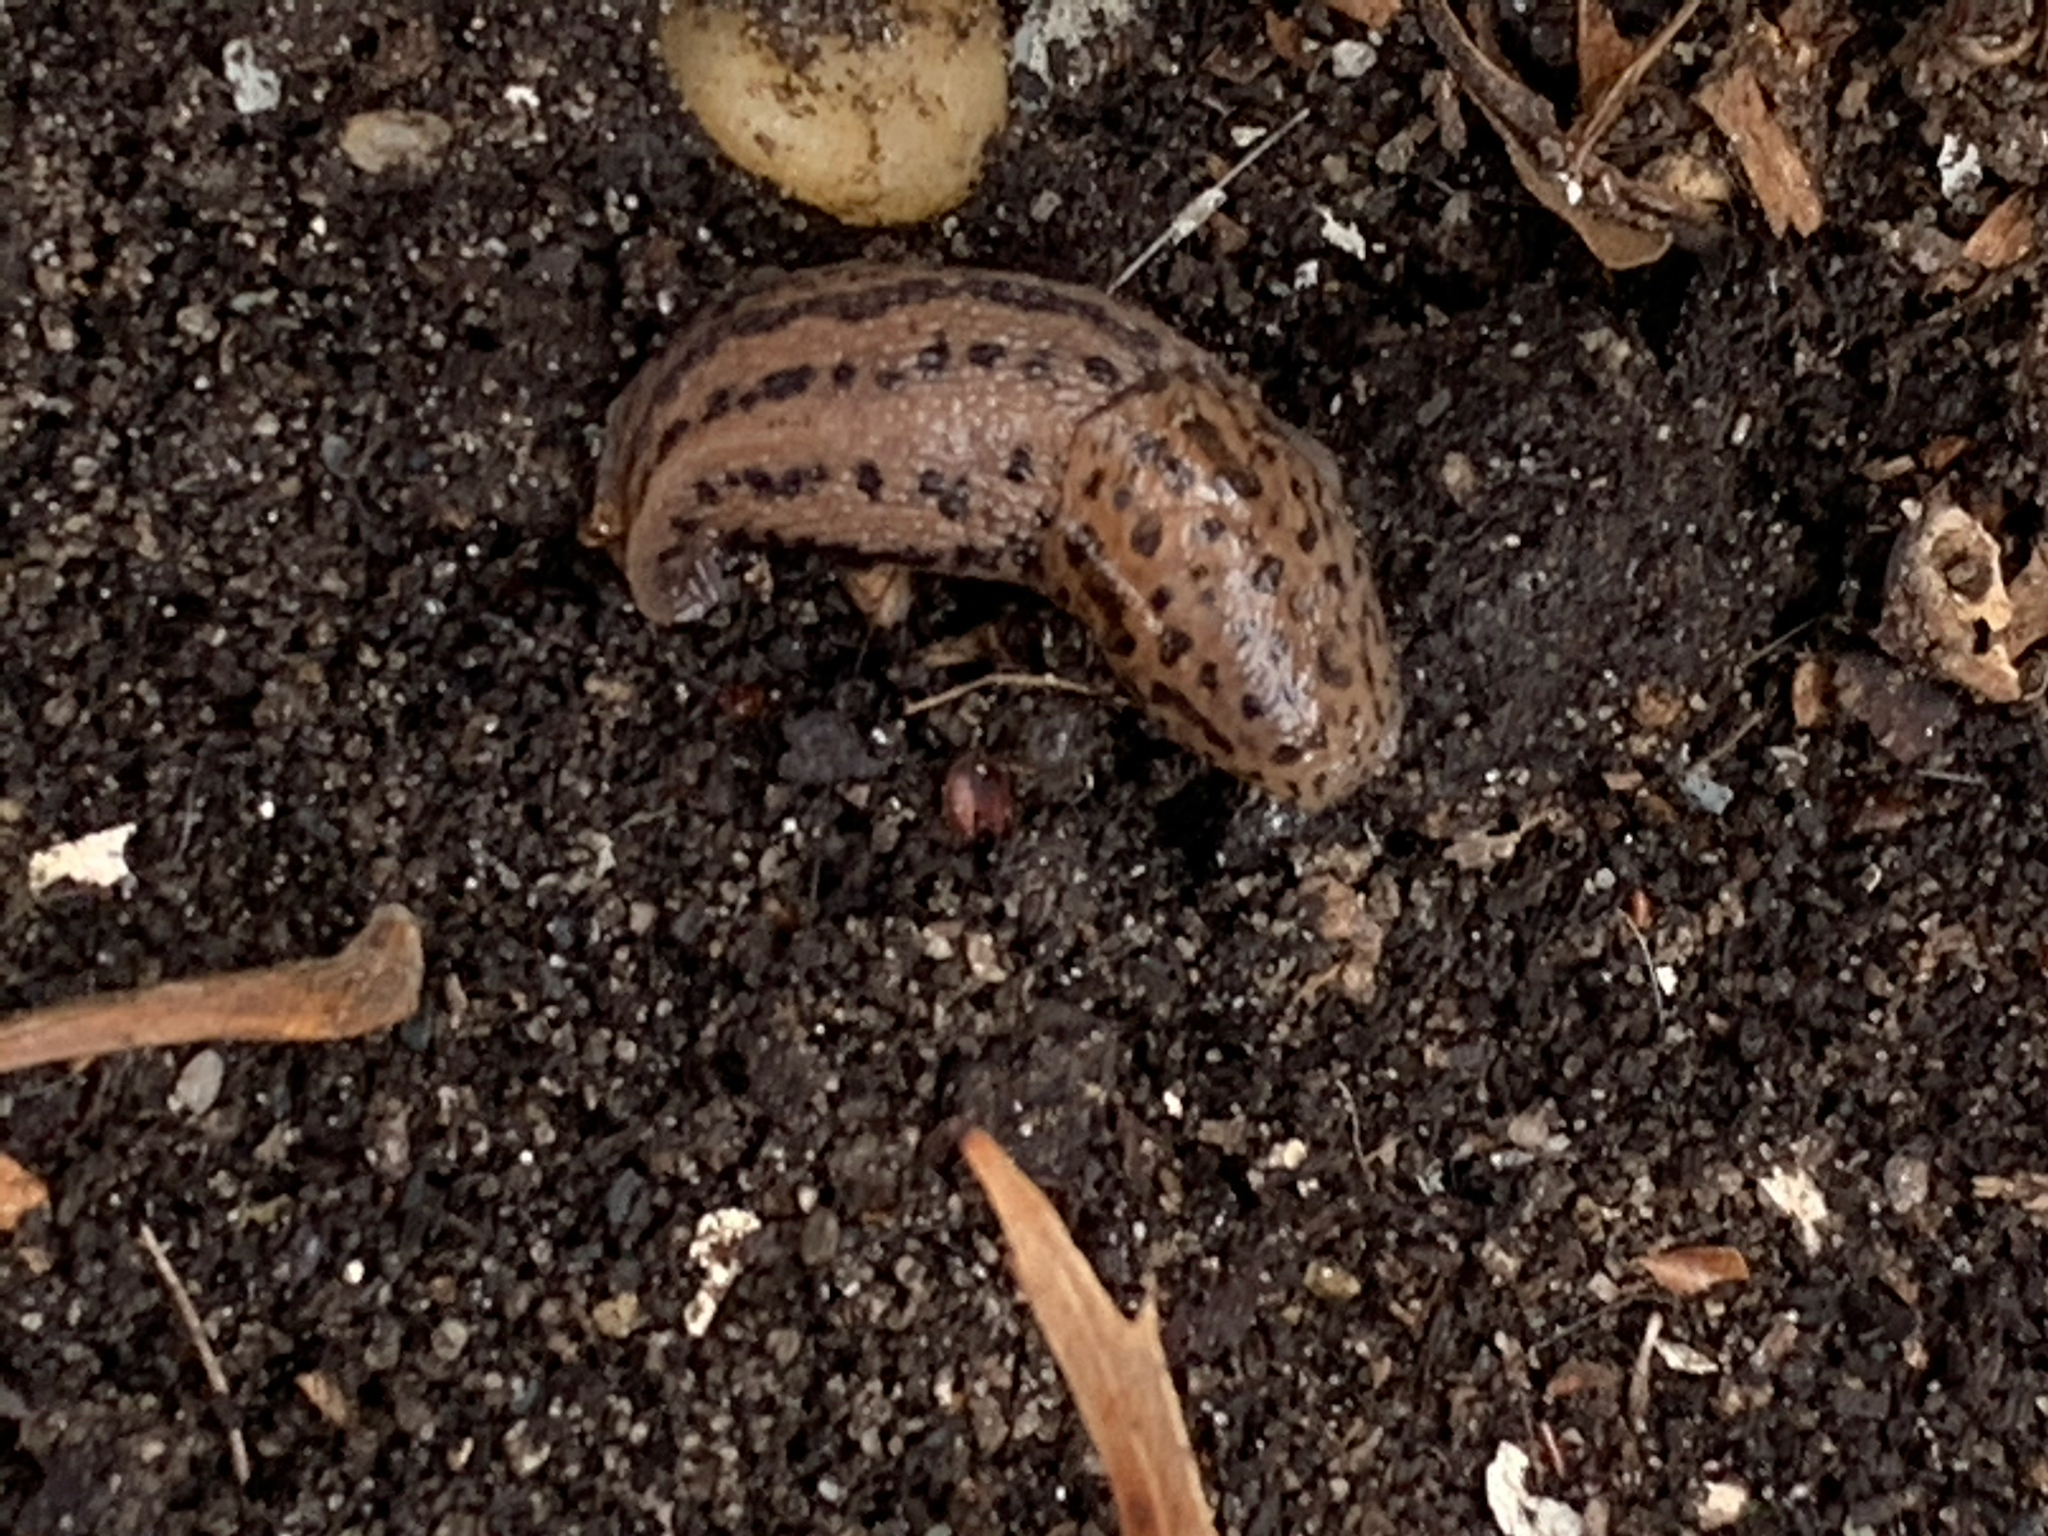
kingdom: Animalia
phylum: Mollusca
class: Gastropoda
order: Stylommatophora
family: Limacidae
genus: Limax
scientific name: Limax maximus
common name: Great grey slug
